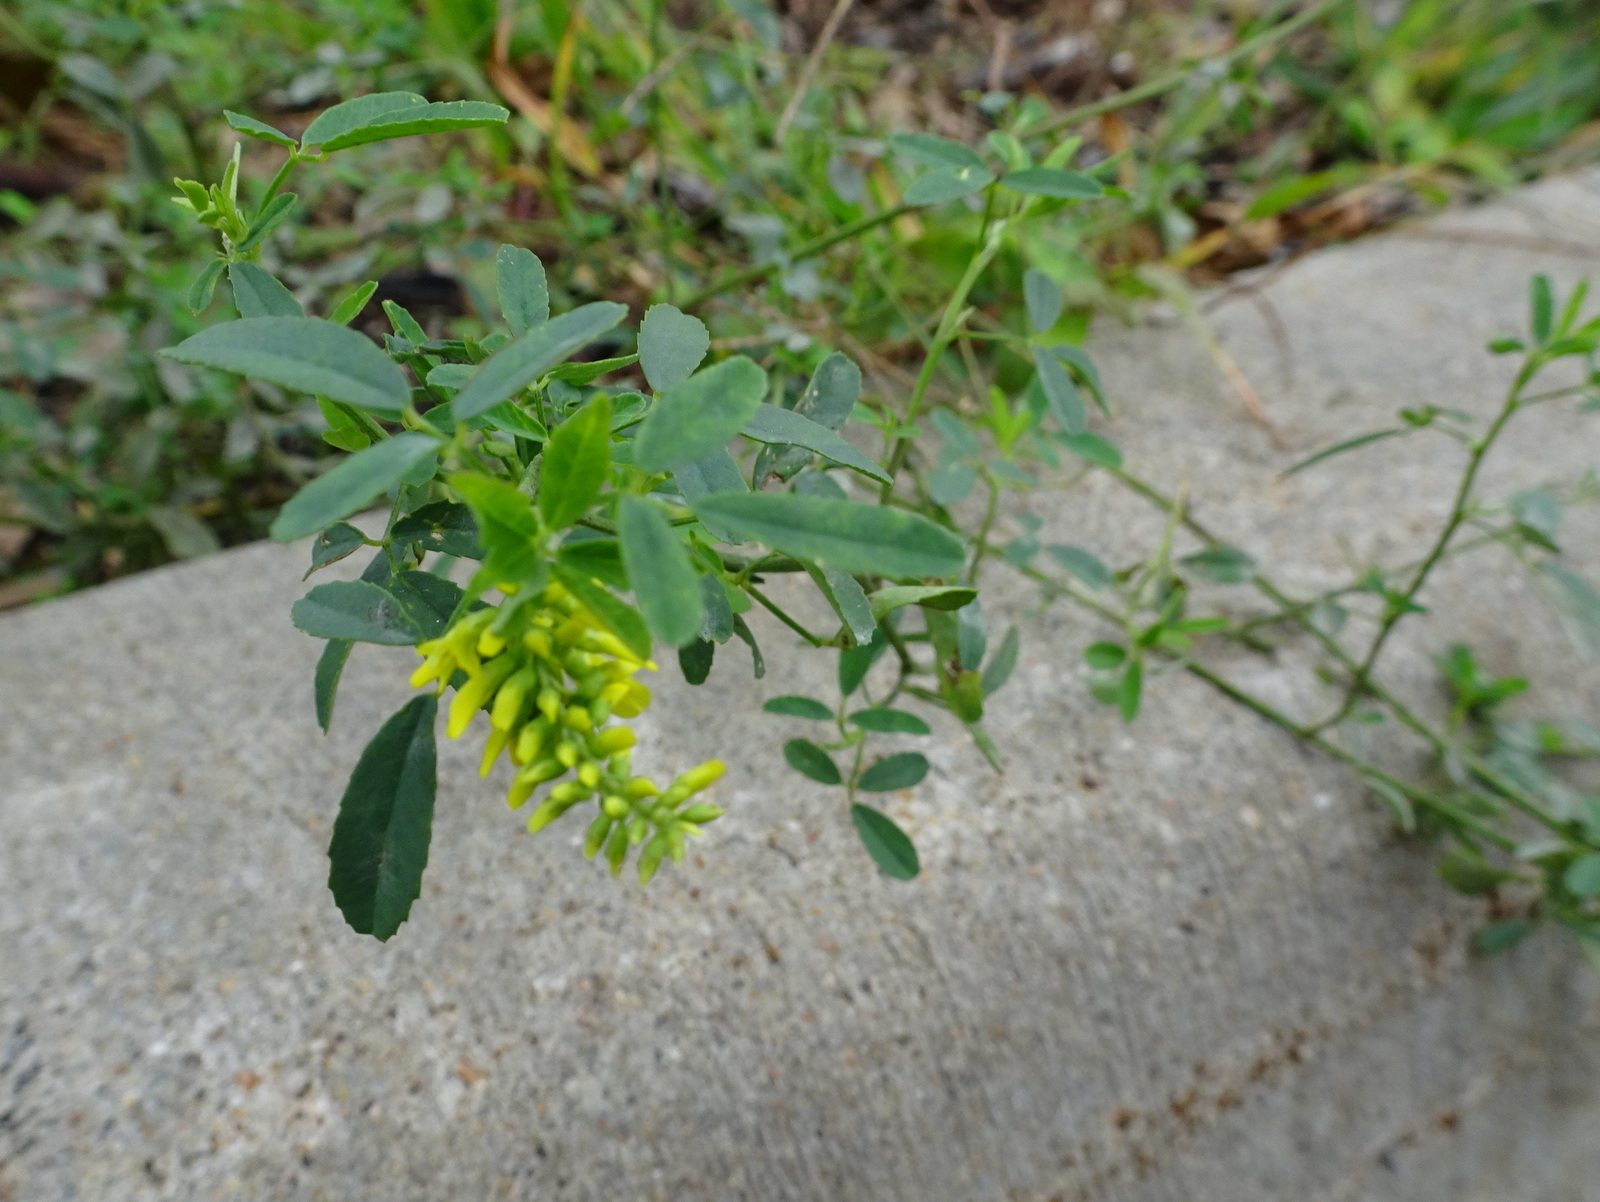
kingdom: Plantae
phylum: Tracheophyta
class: Magnoliopsida
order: Fabales
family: Fabaceae
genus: Melilotus
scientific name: Melilotus officinalis
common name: Sweetclover
